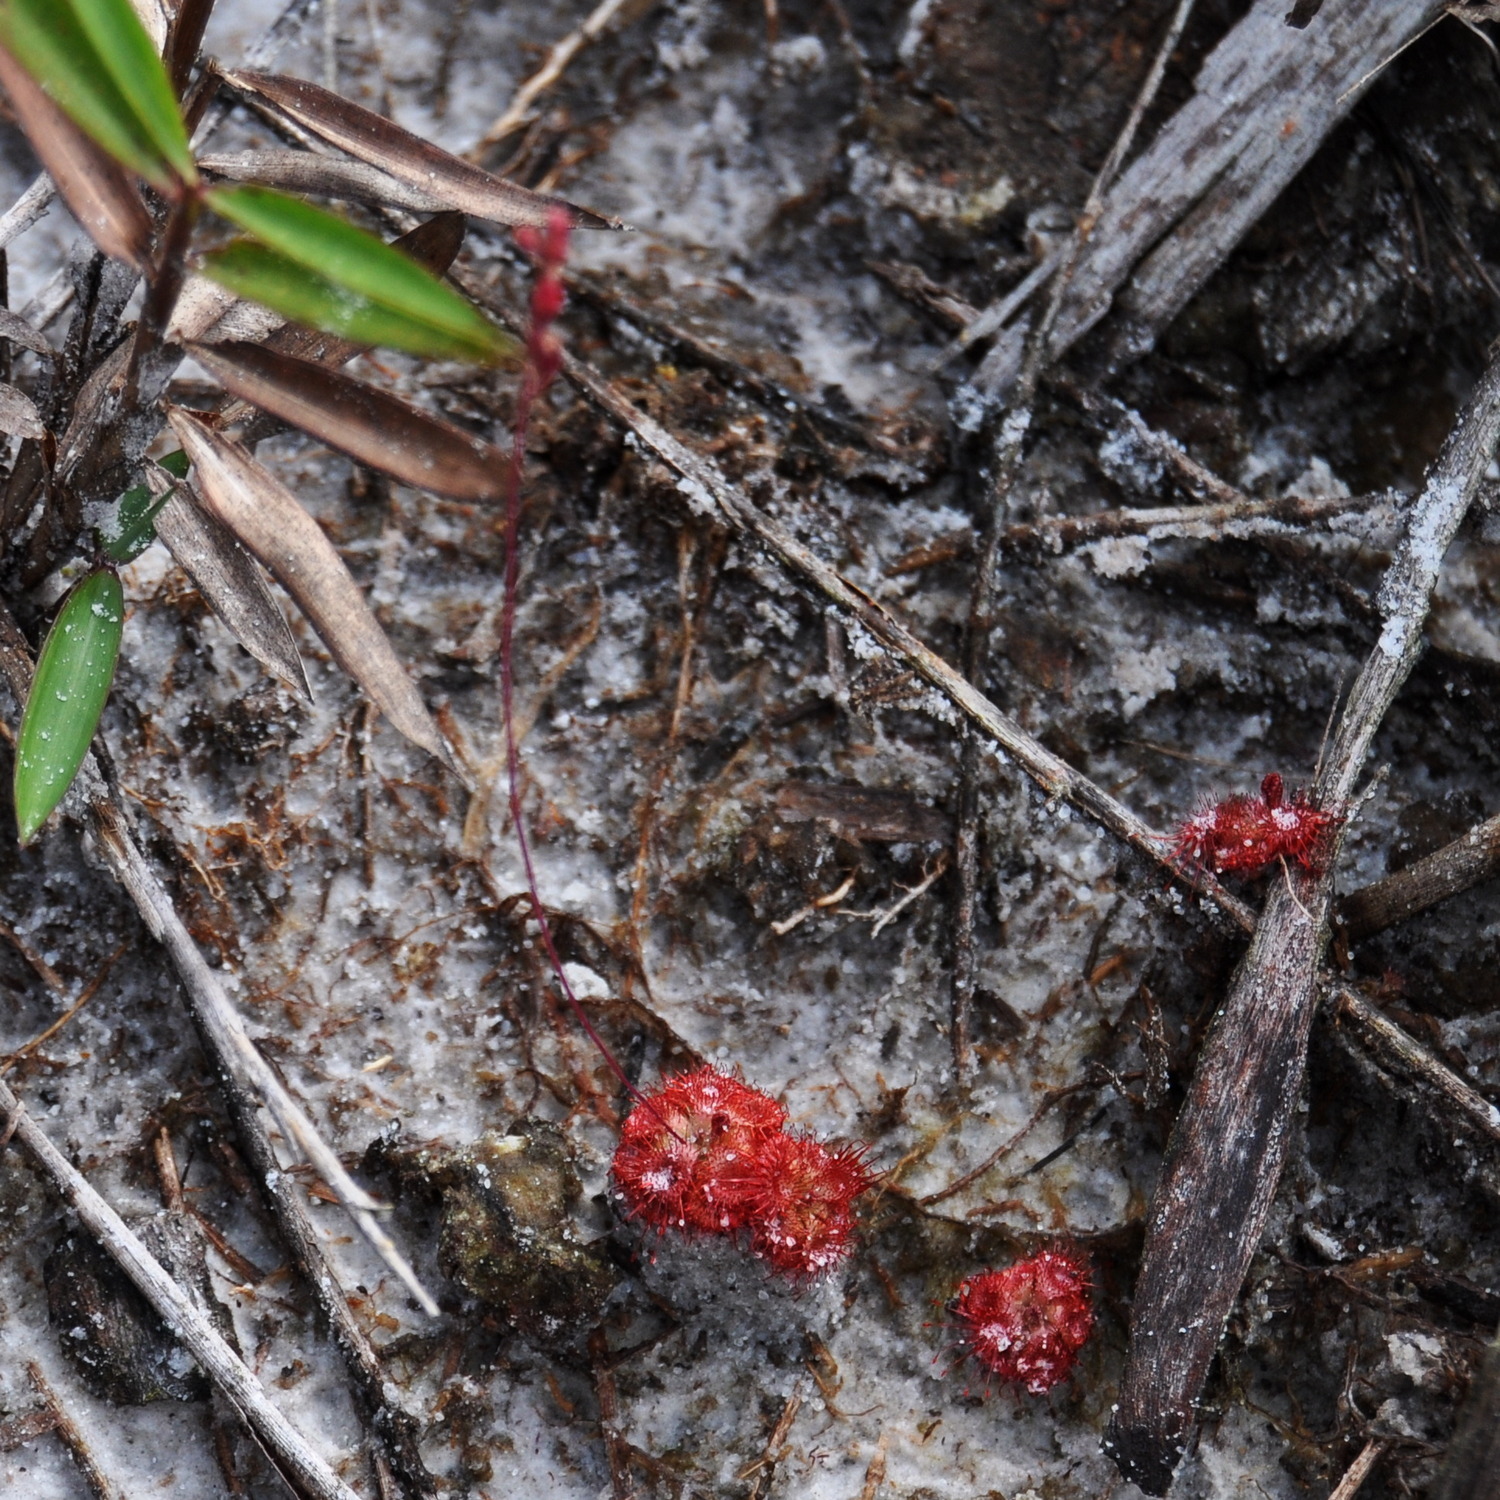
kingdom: Plantae
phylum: Tracheophyta
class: Magnoliopsida
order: Caryophyllales
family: Droseraceae
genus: Drosera
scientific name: Drosera spatulata
